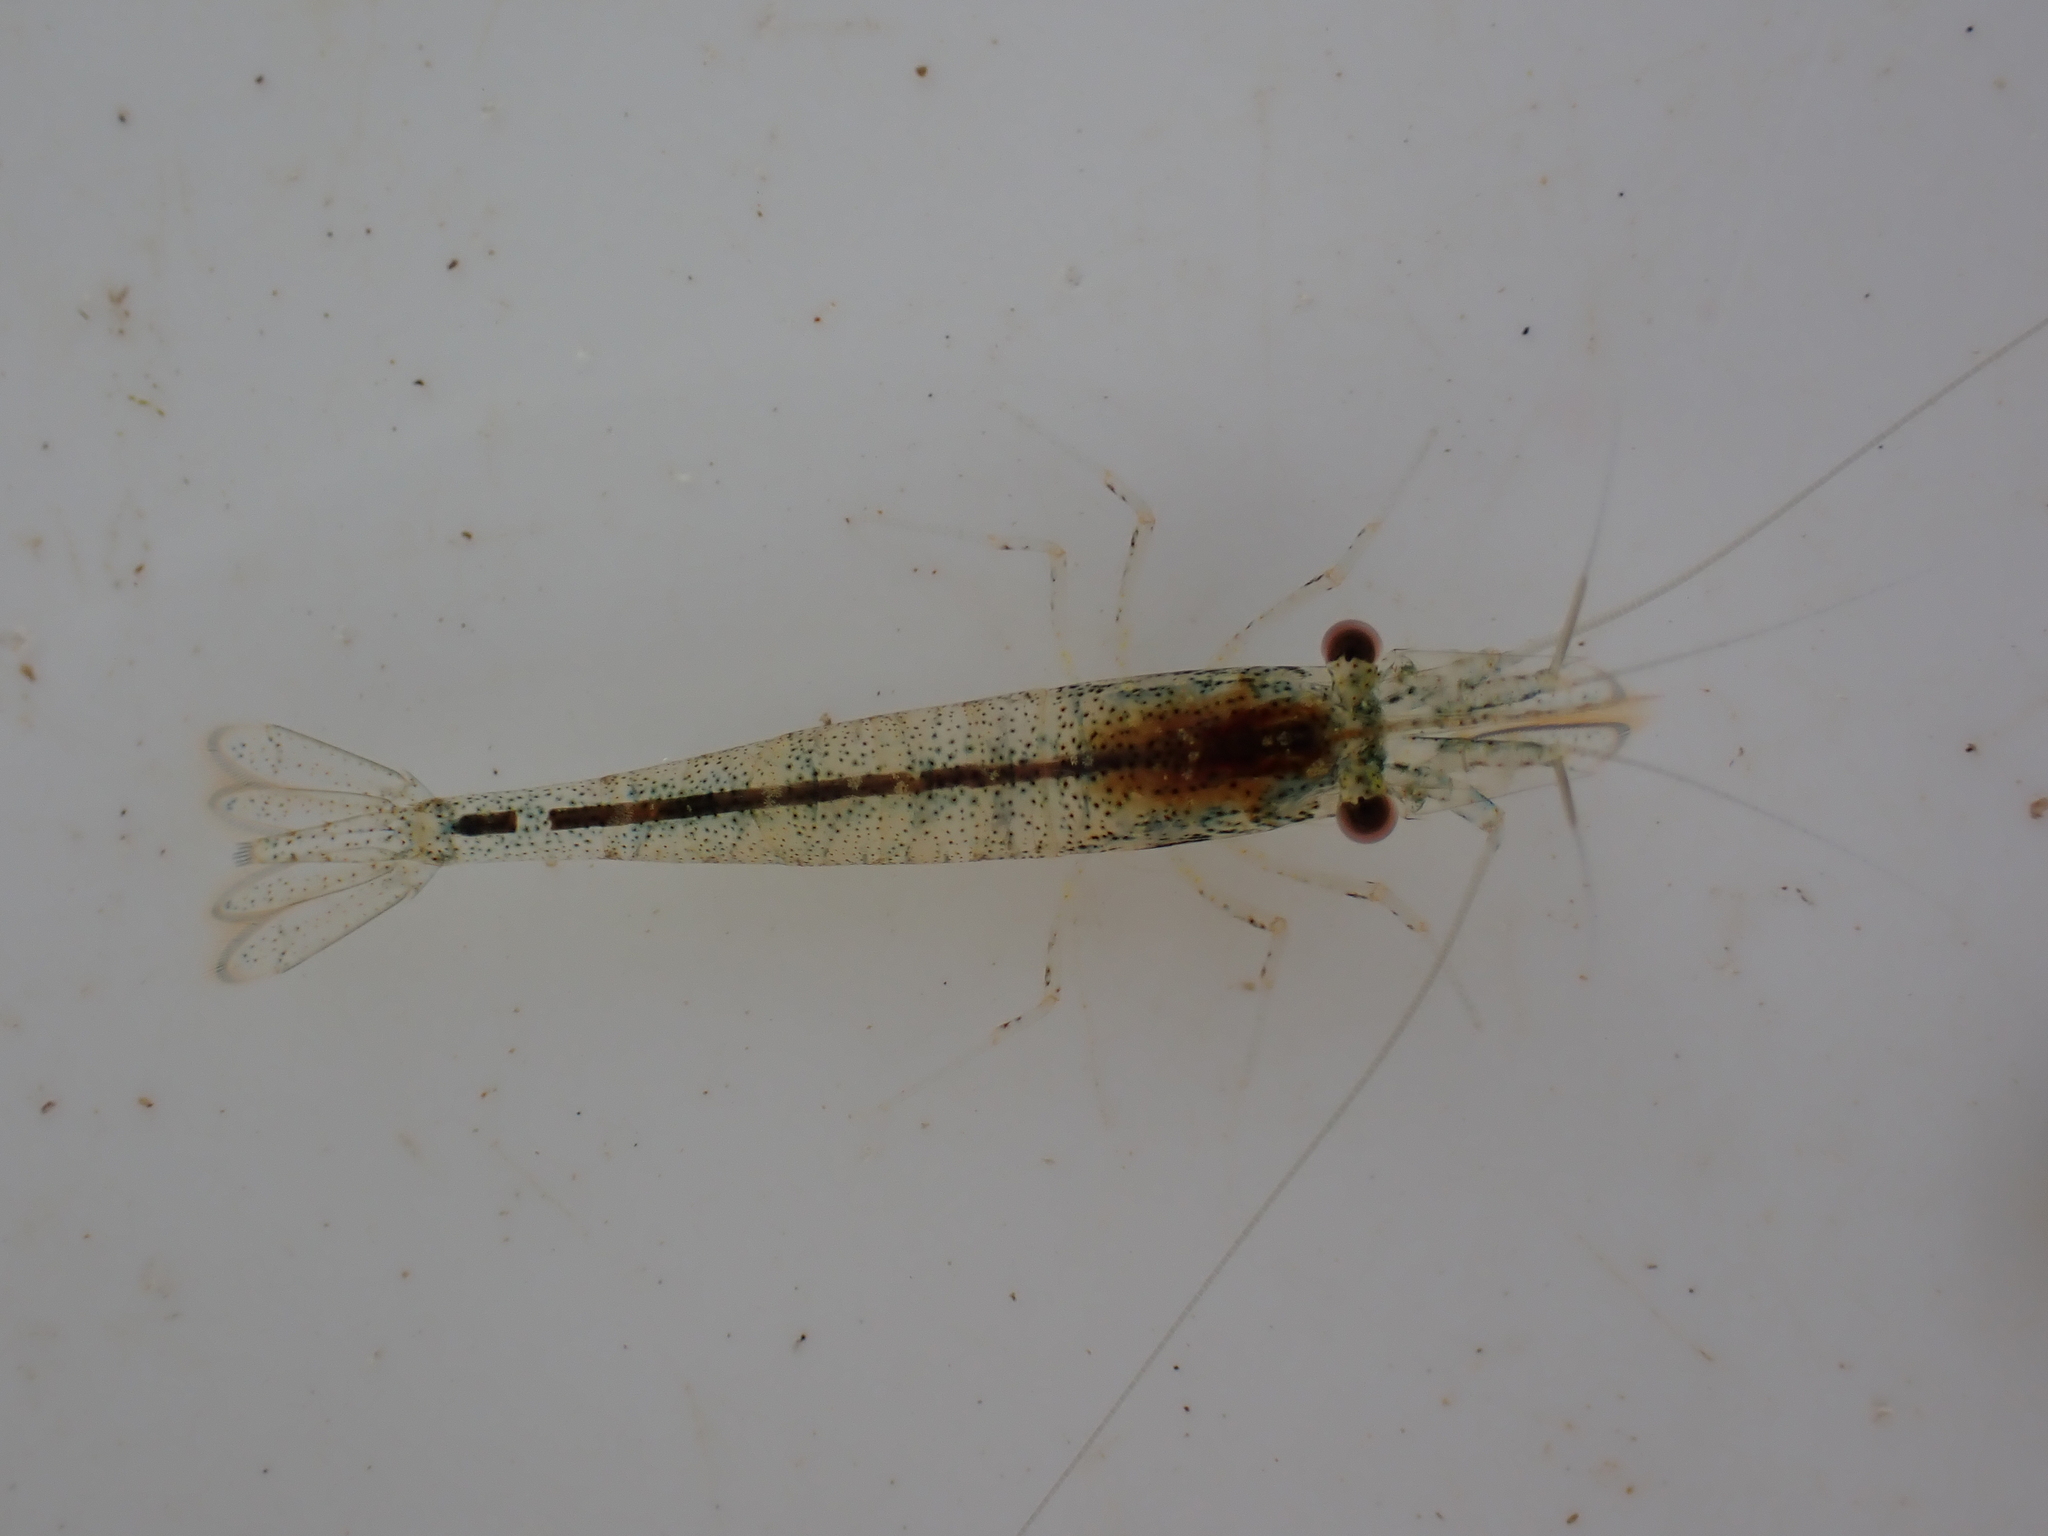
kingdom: Animalia
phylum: Arthropoda
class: Malacostraca
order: Decapoda
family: Atyidae
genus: Paratya
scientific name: Paratya curvirostris
